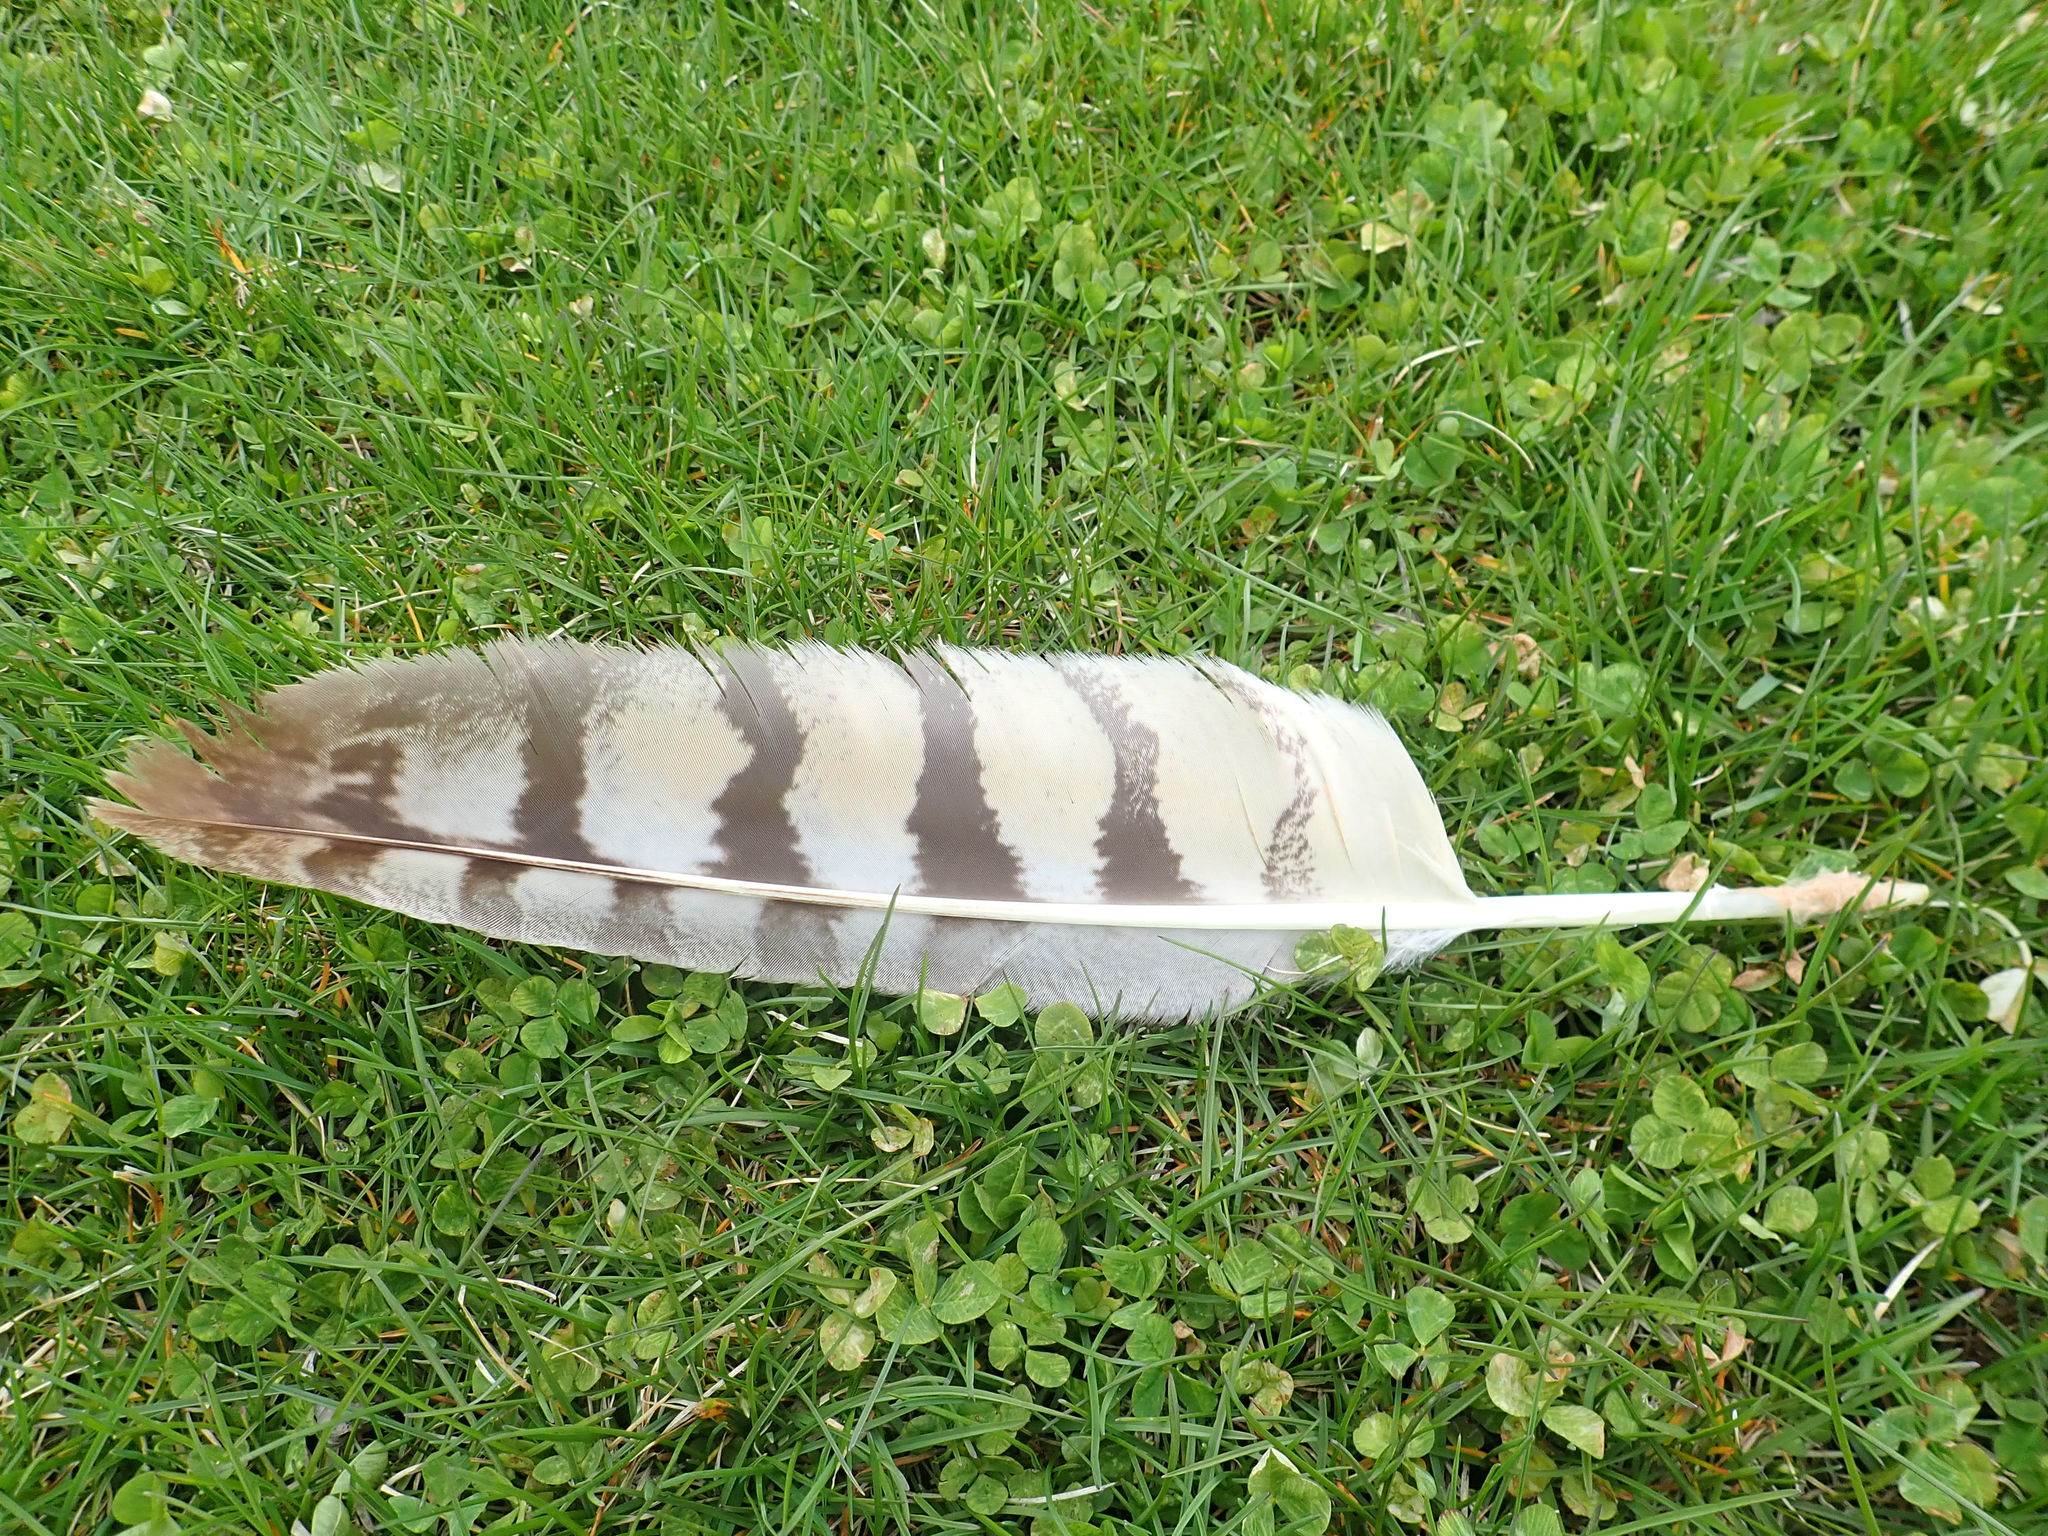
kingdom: Animalia
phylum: Chordata
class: Aves
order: Strigiformes
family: Strigidae
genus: Bubo
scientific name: Bubo virginianus
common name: Great horned owl
